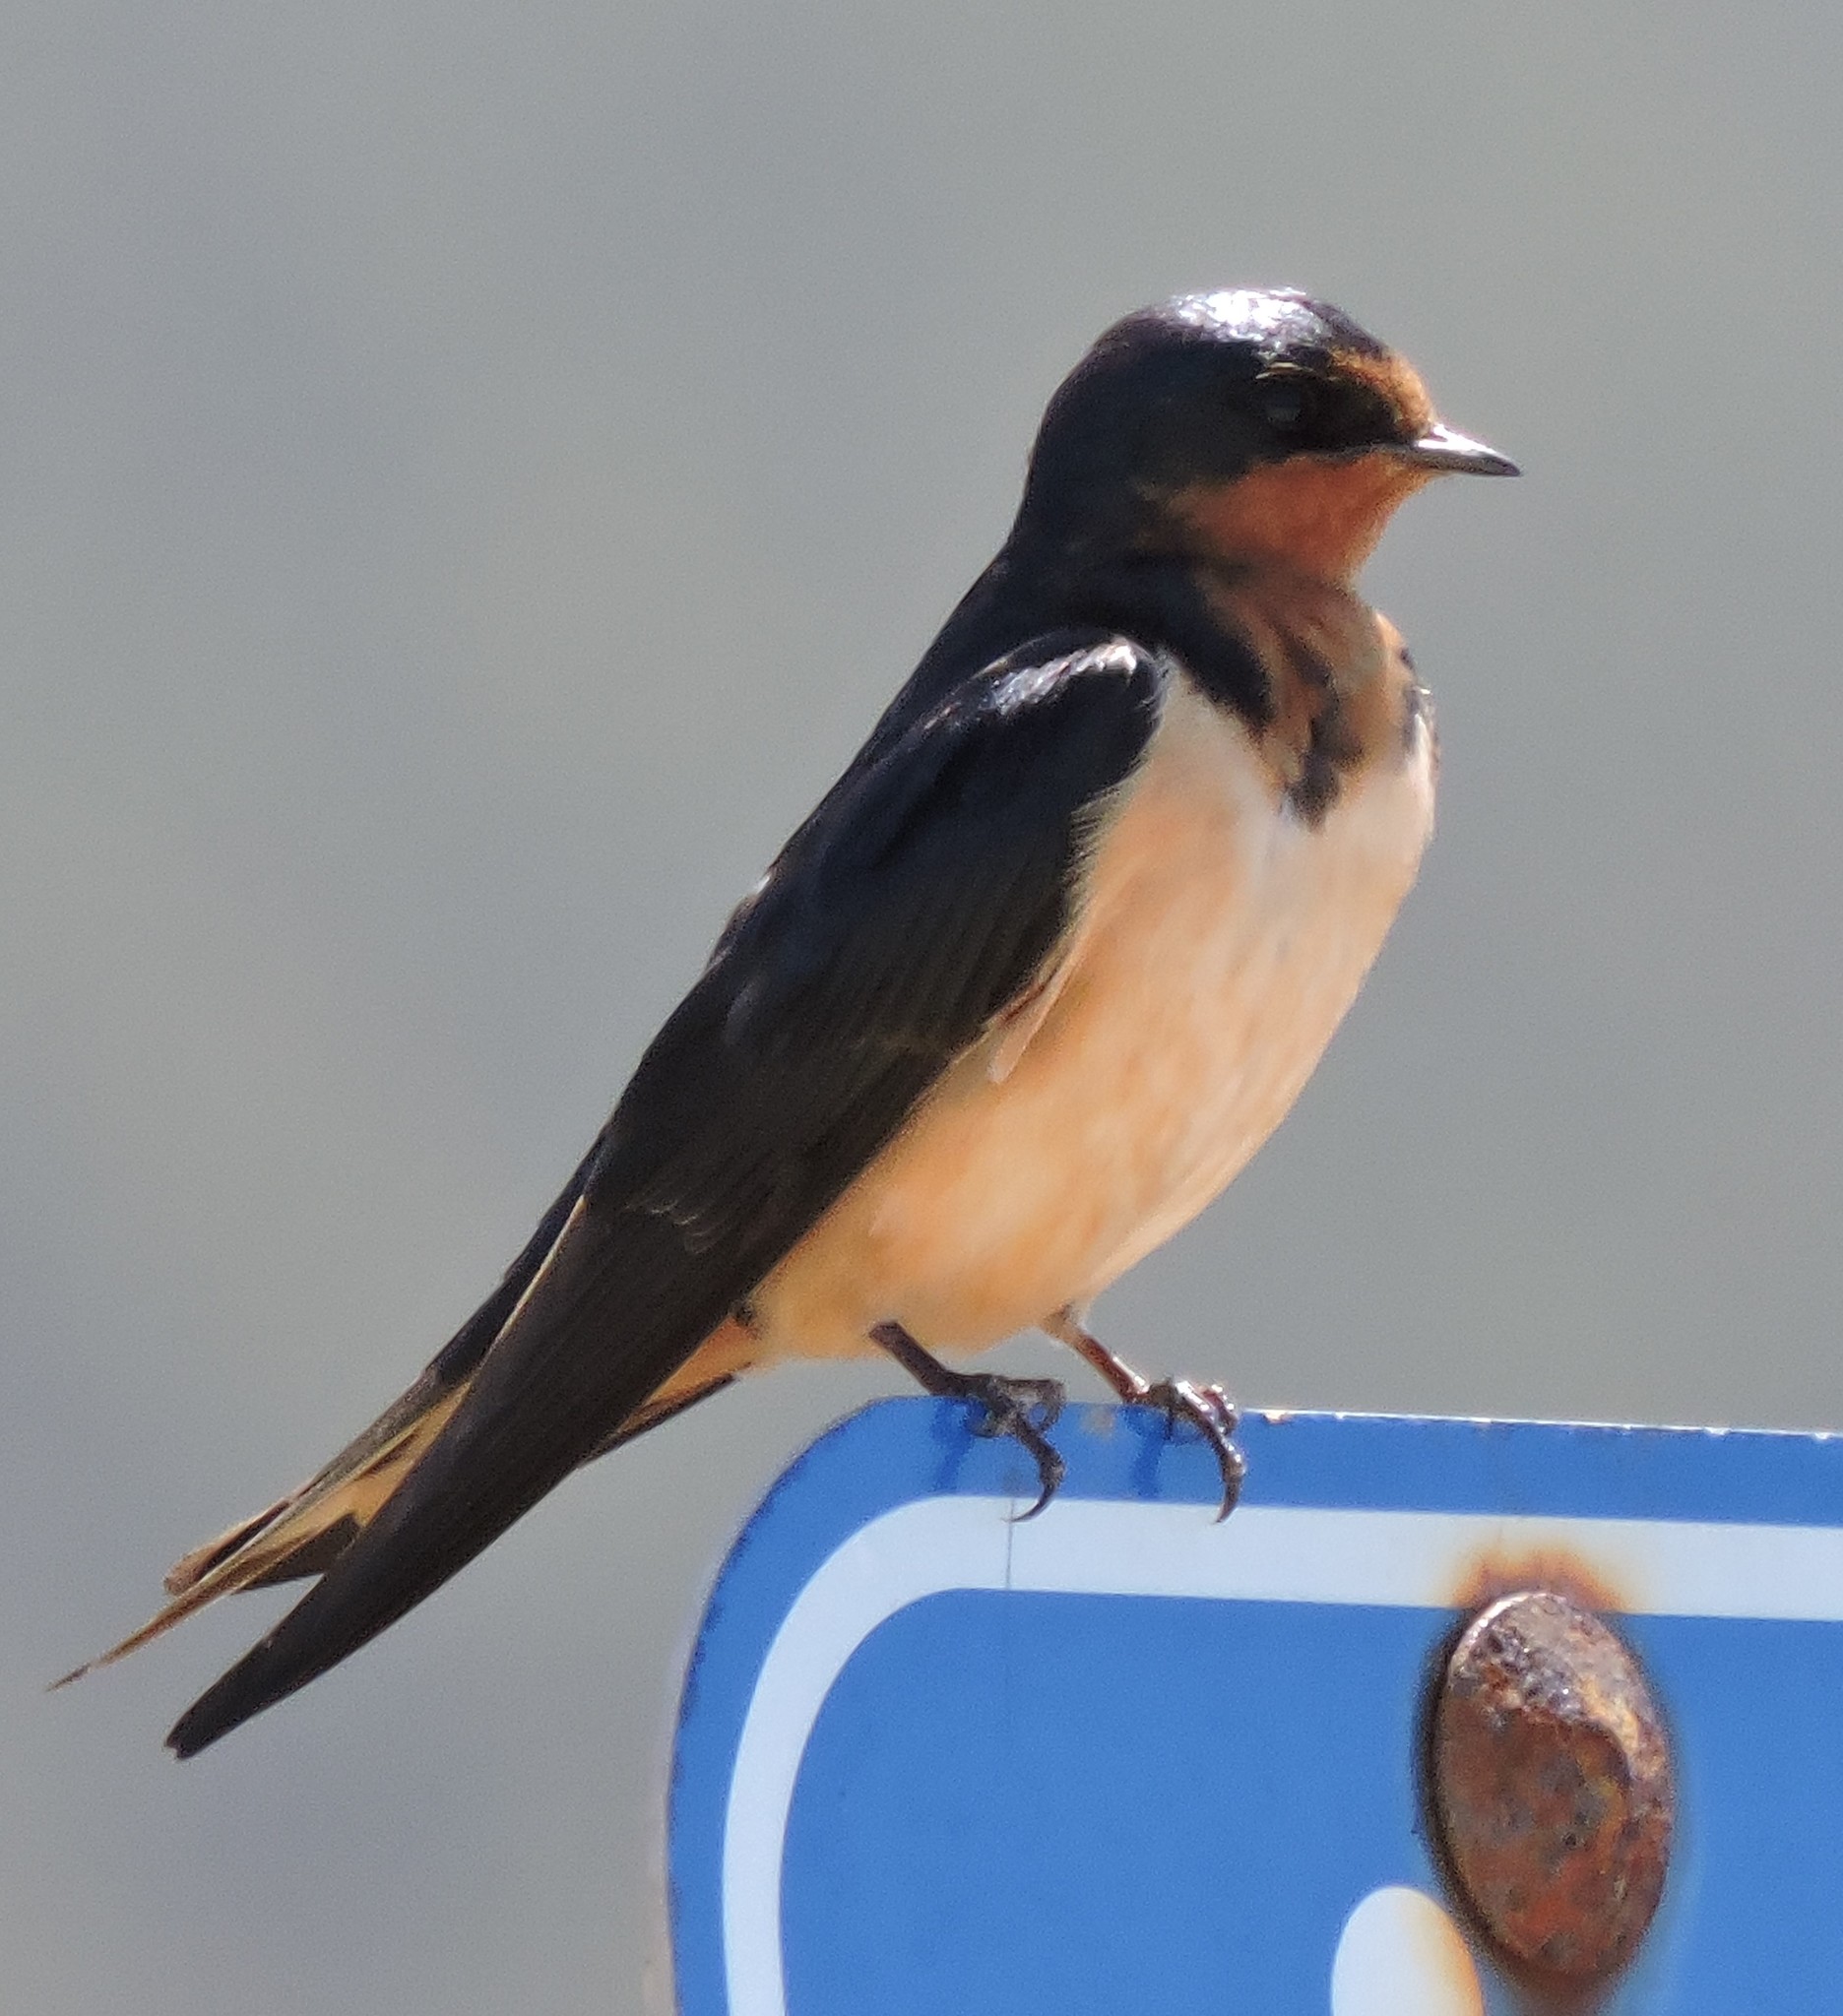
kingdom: Animalia
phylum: Chordata
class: Aves
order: Passeriformes
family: Hirundinidae
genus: Hirundo
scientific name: Hirundo rustica
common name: Barn swallow
